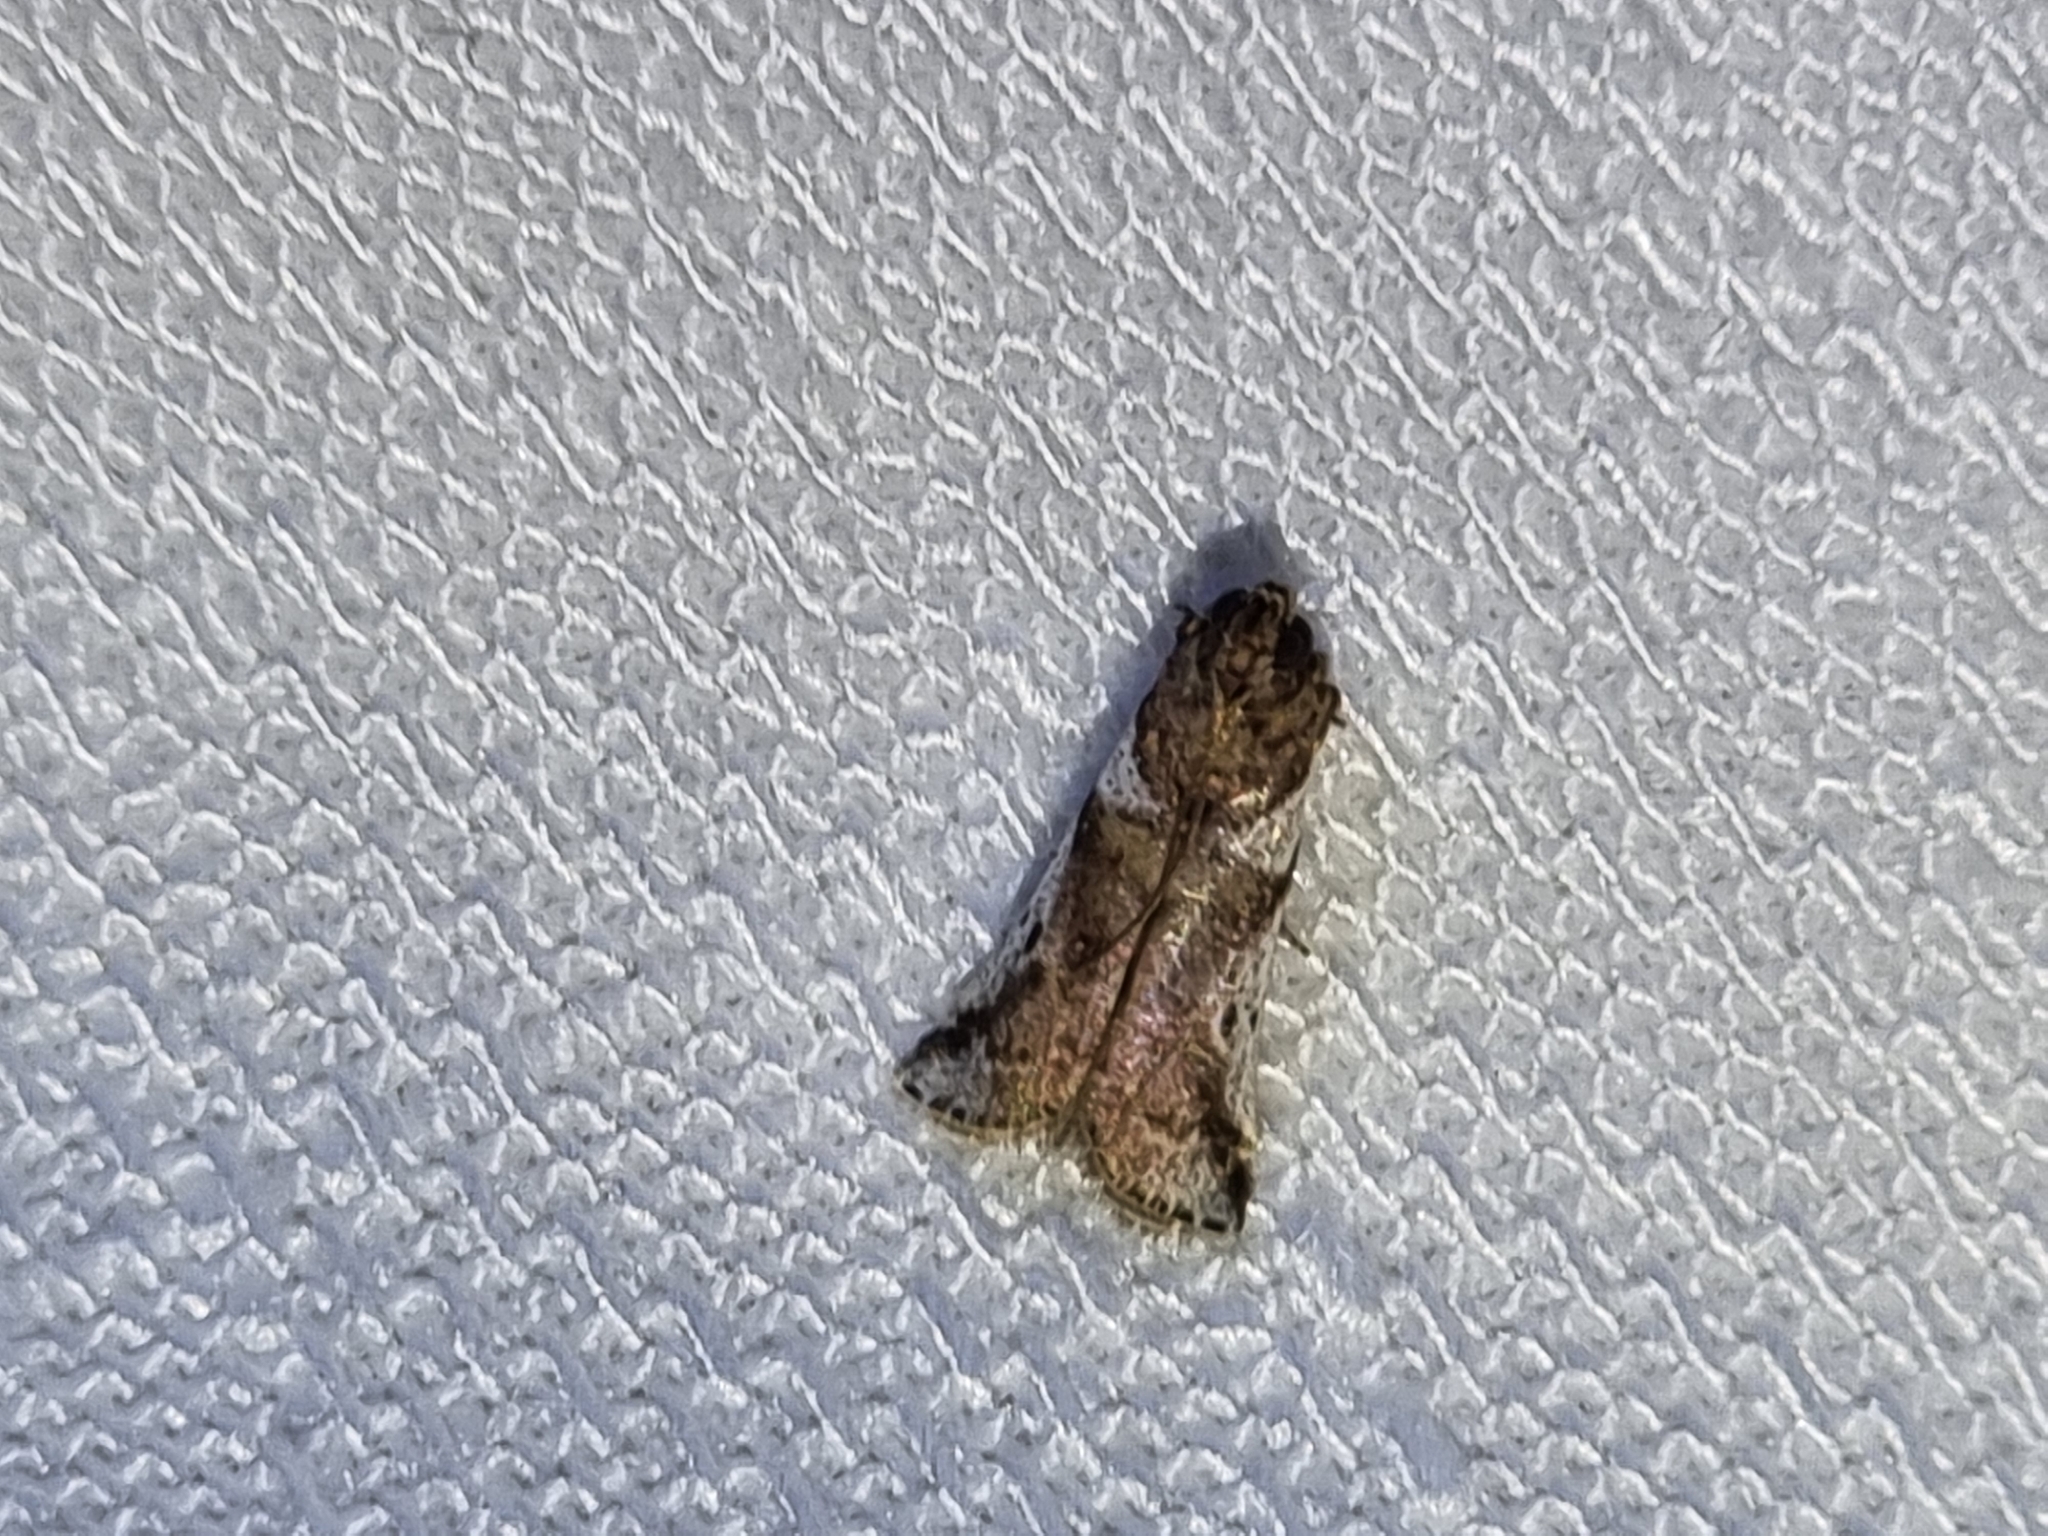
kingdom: Animalia
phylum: Arthropoda
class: Insecta
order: Lepidoptera
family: Pyralidae
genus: Rhodophaea
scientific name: Rhodophaea
